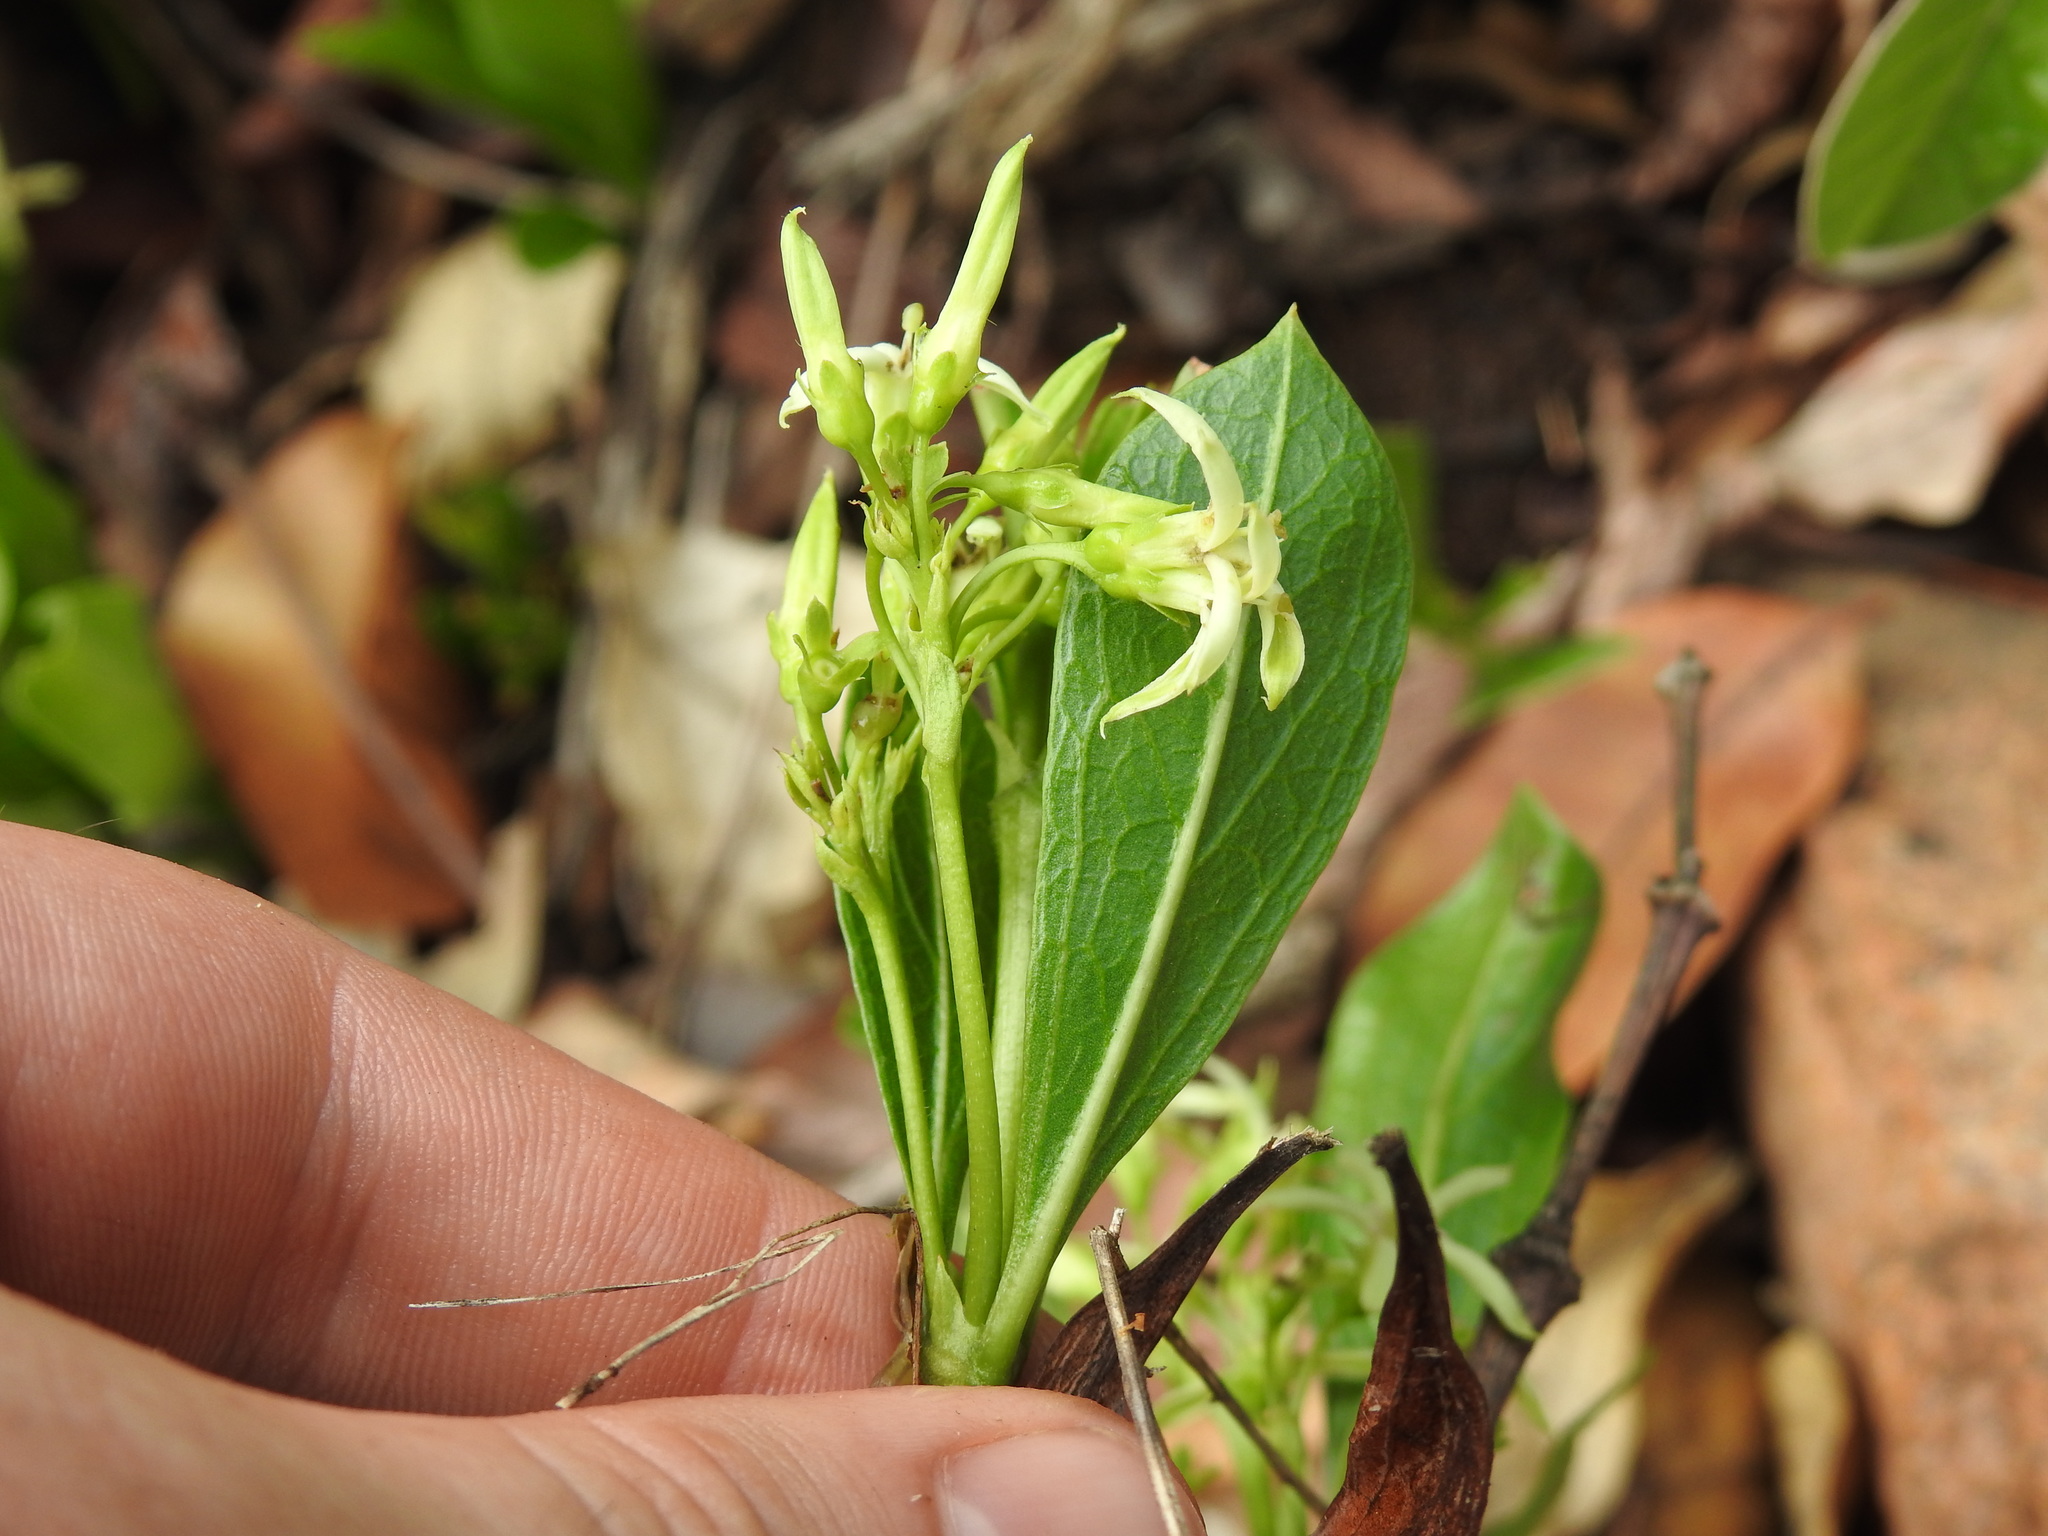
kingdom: Plantae
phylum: Tracheophyta
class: Magnoliopsida
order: Gentianales
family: Rubiaceae
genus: Pygmaeothamnus
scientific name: Pygmaeothamnus zeyheri
